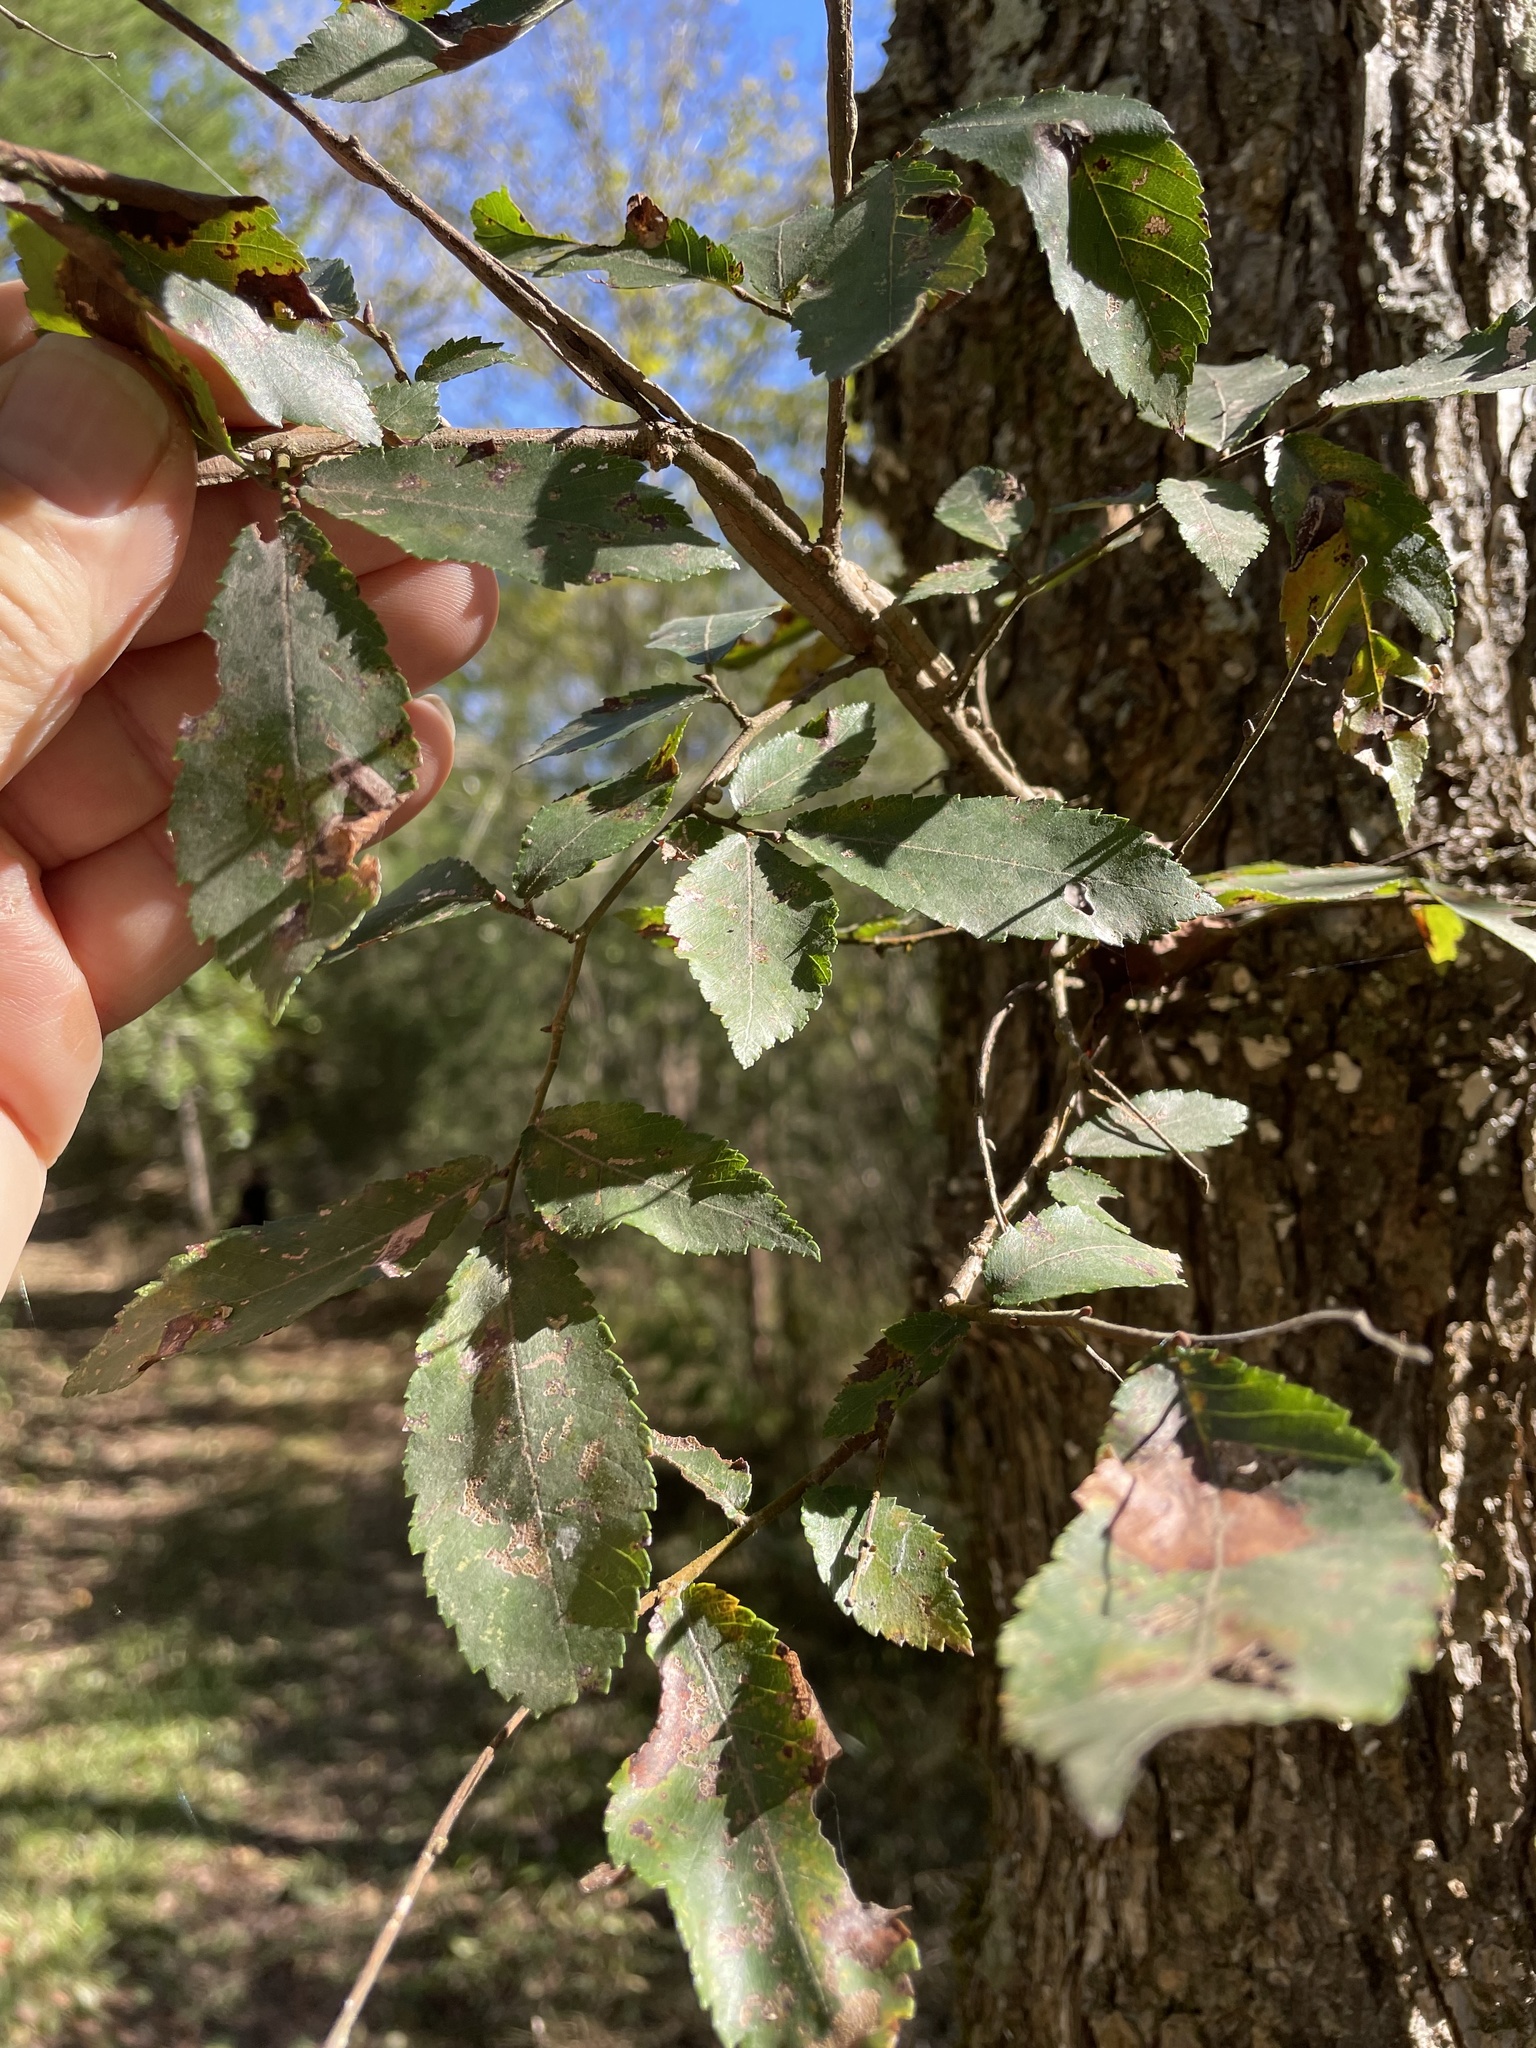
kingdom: Plantae
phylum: Tracheophyta
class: Magnoliopsida
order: Rosales
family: Ulmaceae
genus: Ulmus
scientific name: Ulmus alata
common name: Winged elm
